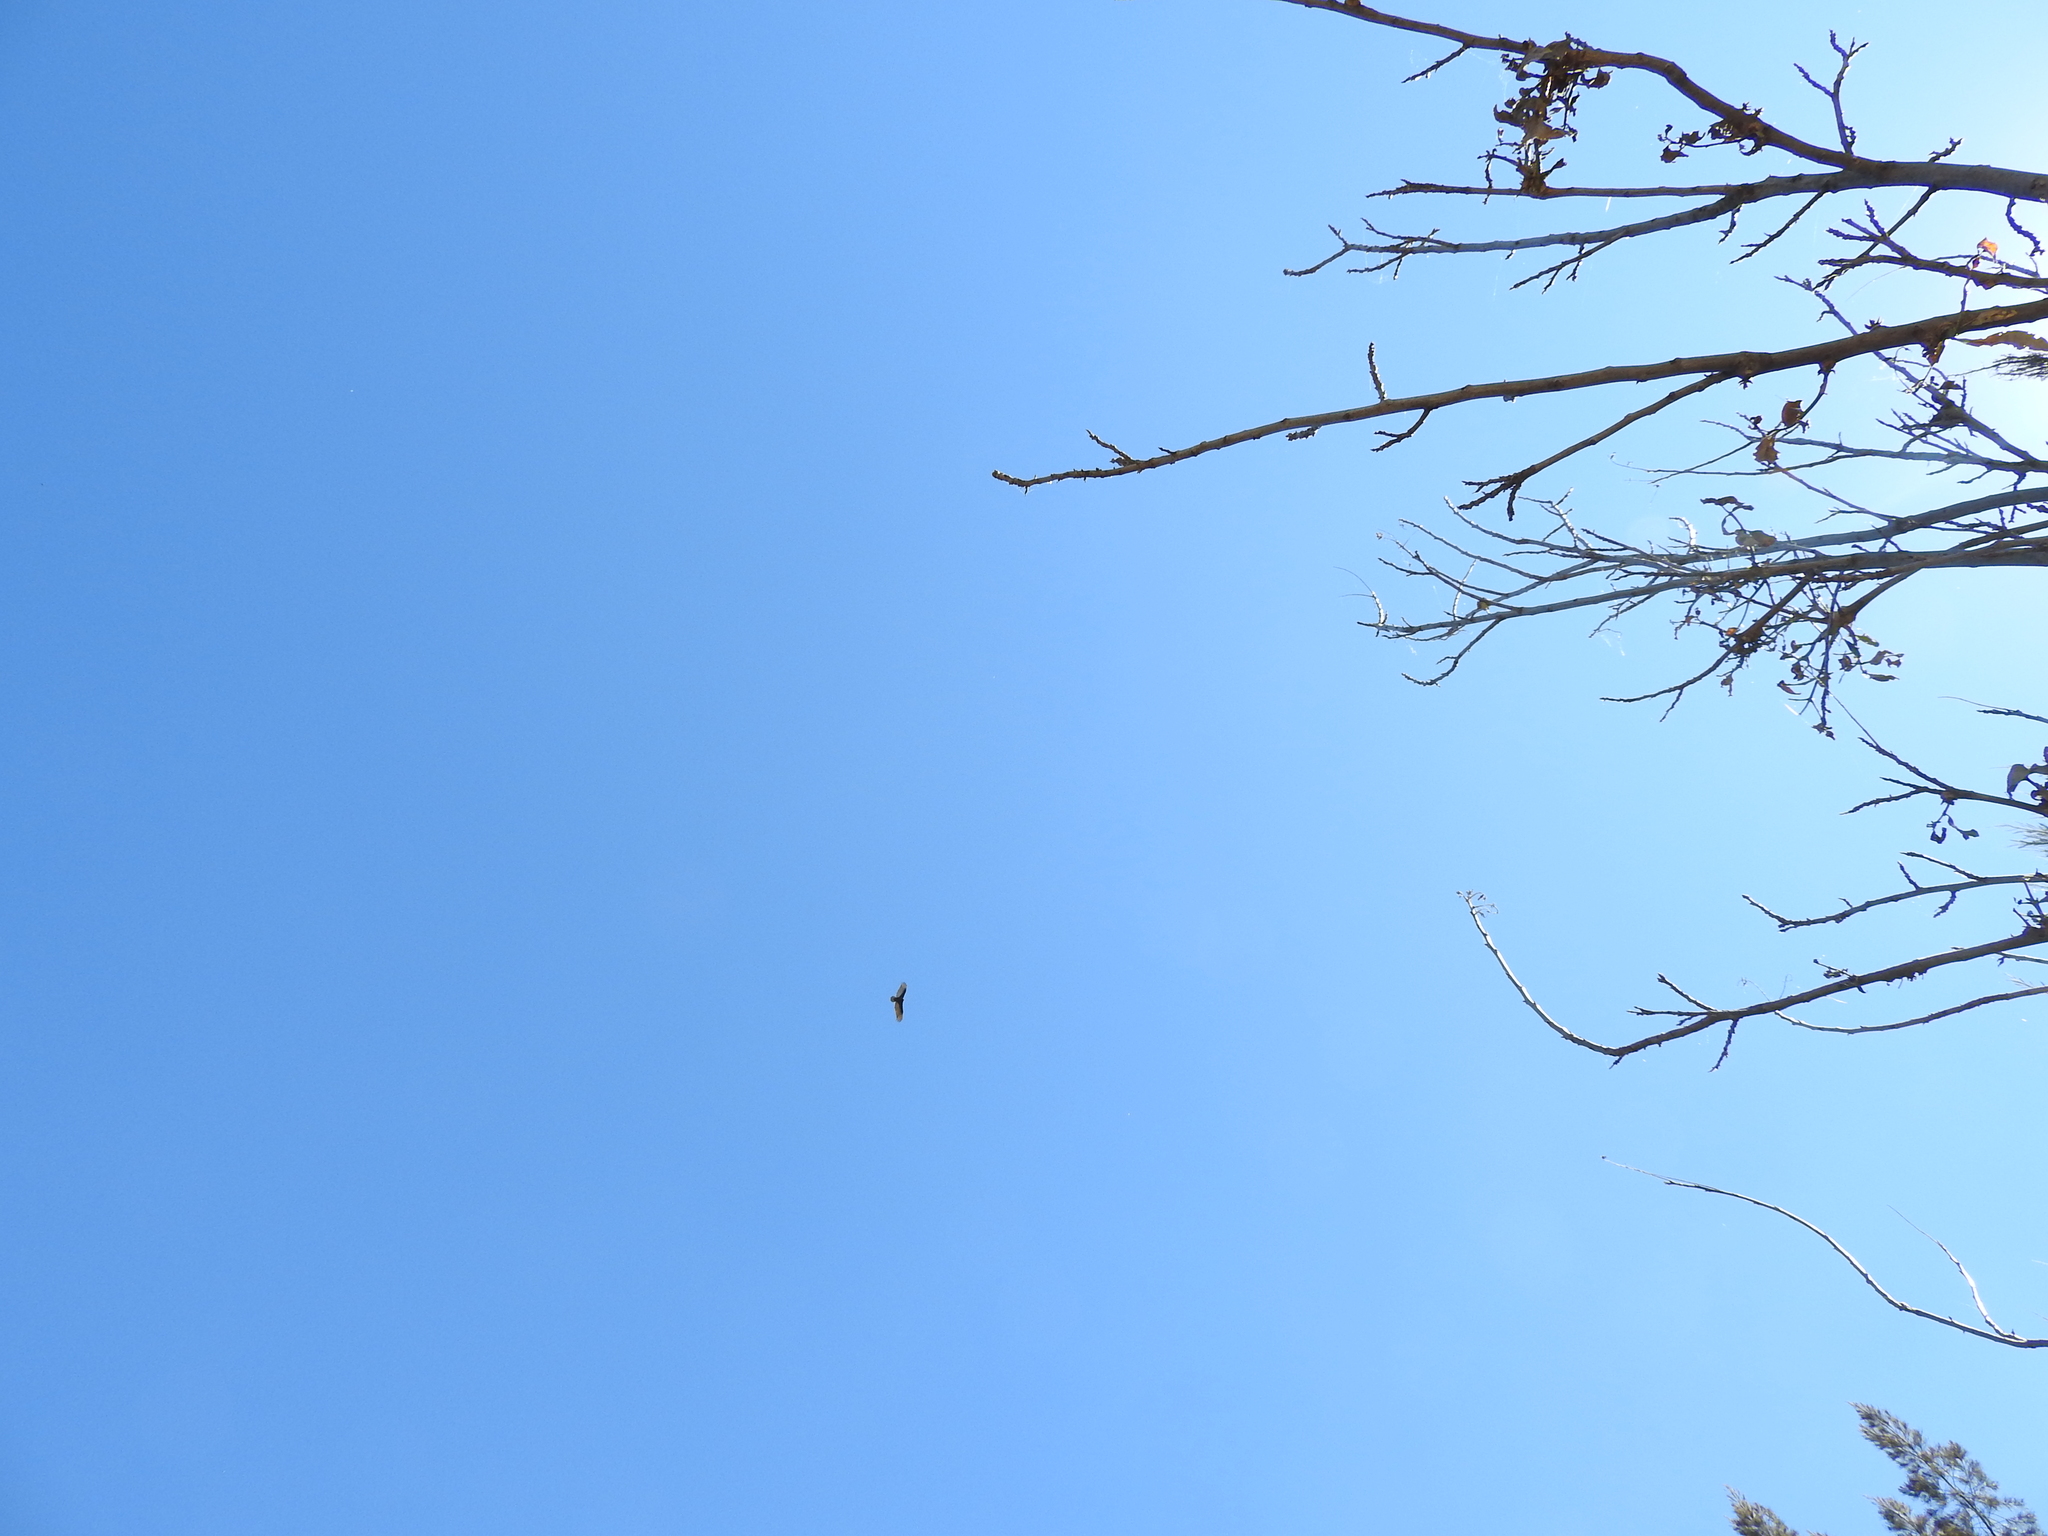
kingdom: Animalia
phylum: Chordata
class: Aves
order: Accipitriformes
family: Cathartidae
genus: Cathartes
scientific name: Cathartes aura
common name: Turkey vulture
